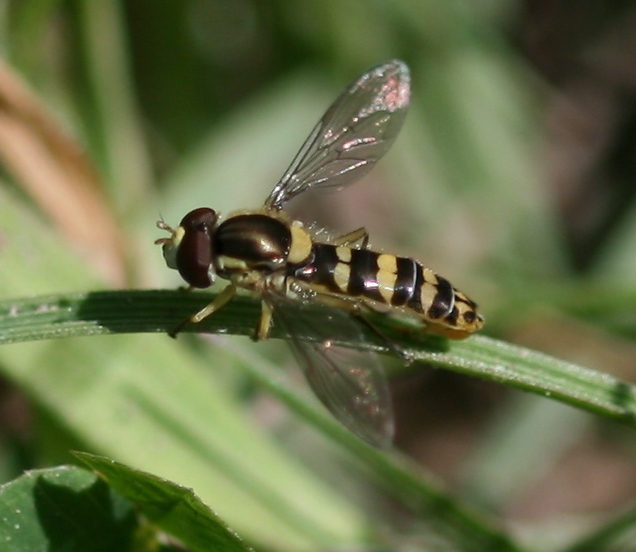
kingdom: Animalia
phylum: Arthropoda
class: Insecta
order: Diptera
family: Syrphidae
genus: Sphaerophoria
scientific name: Sphaerophoria
